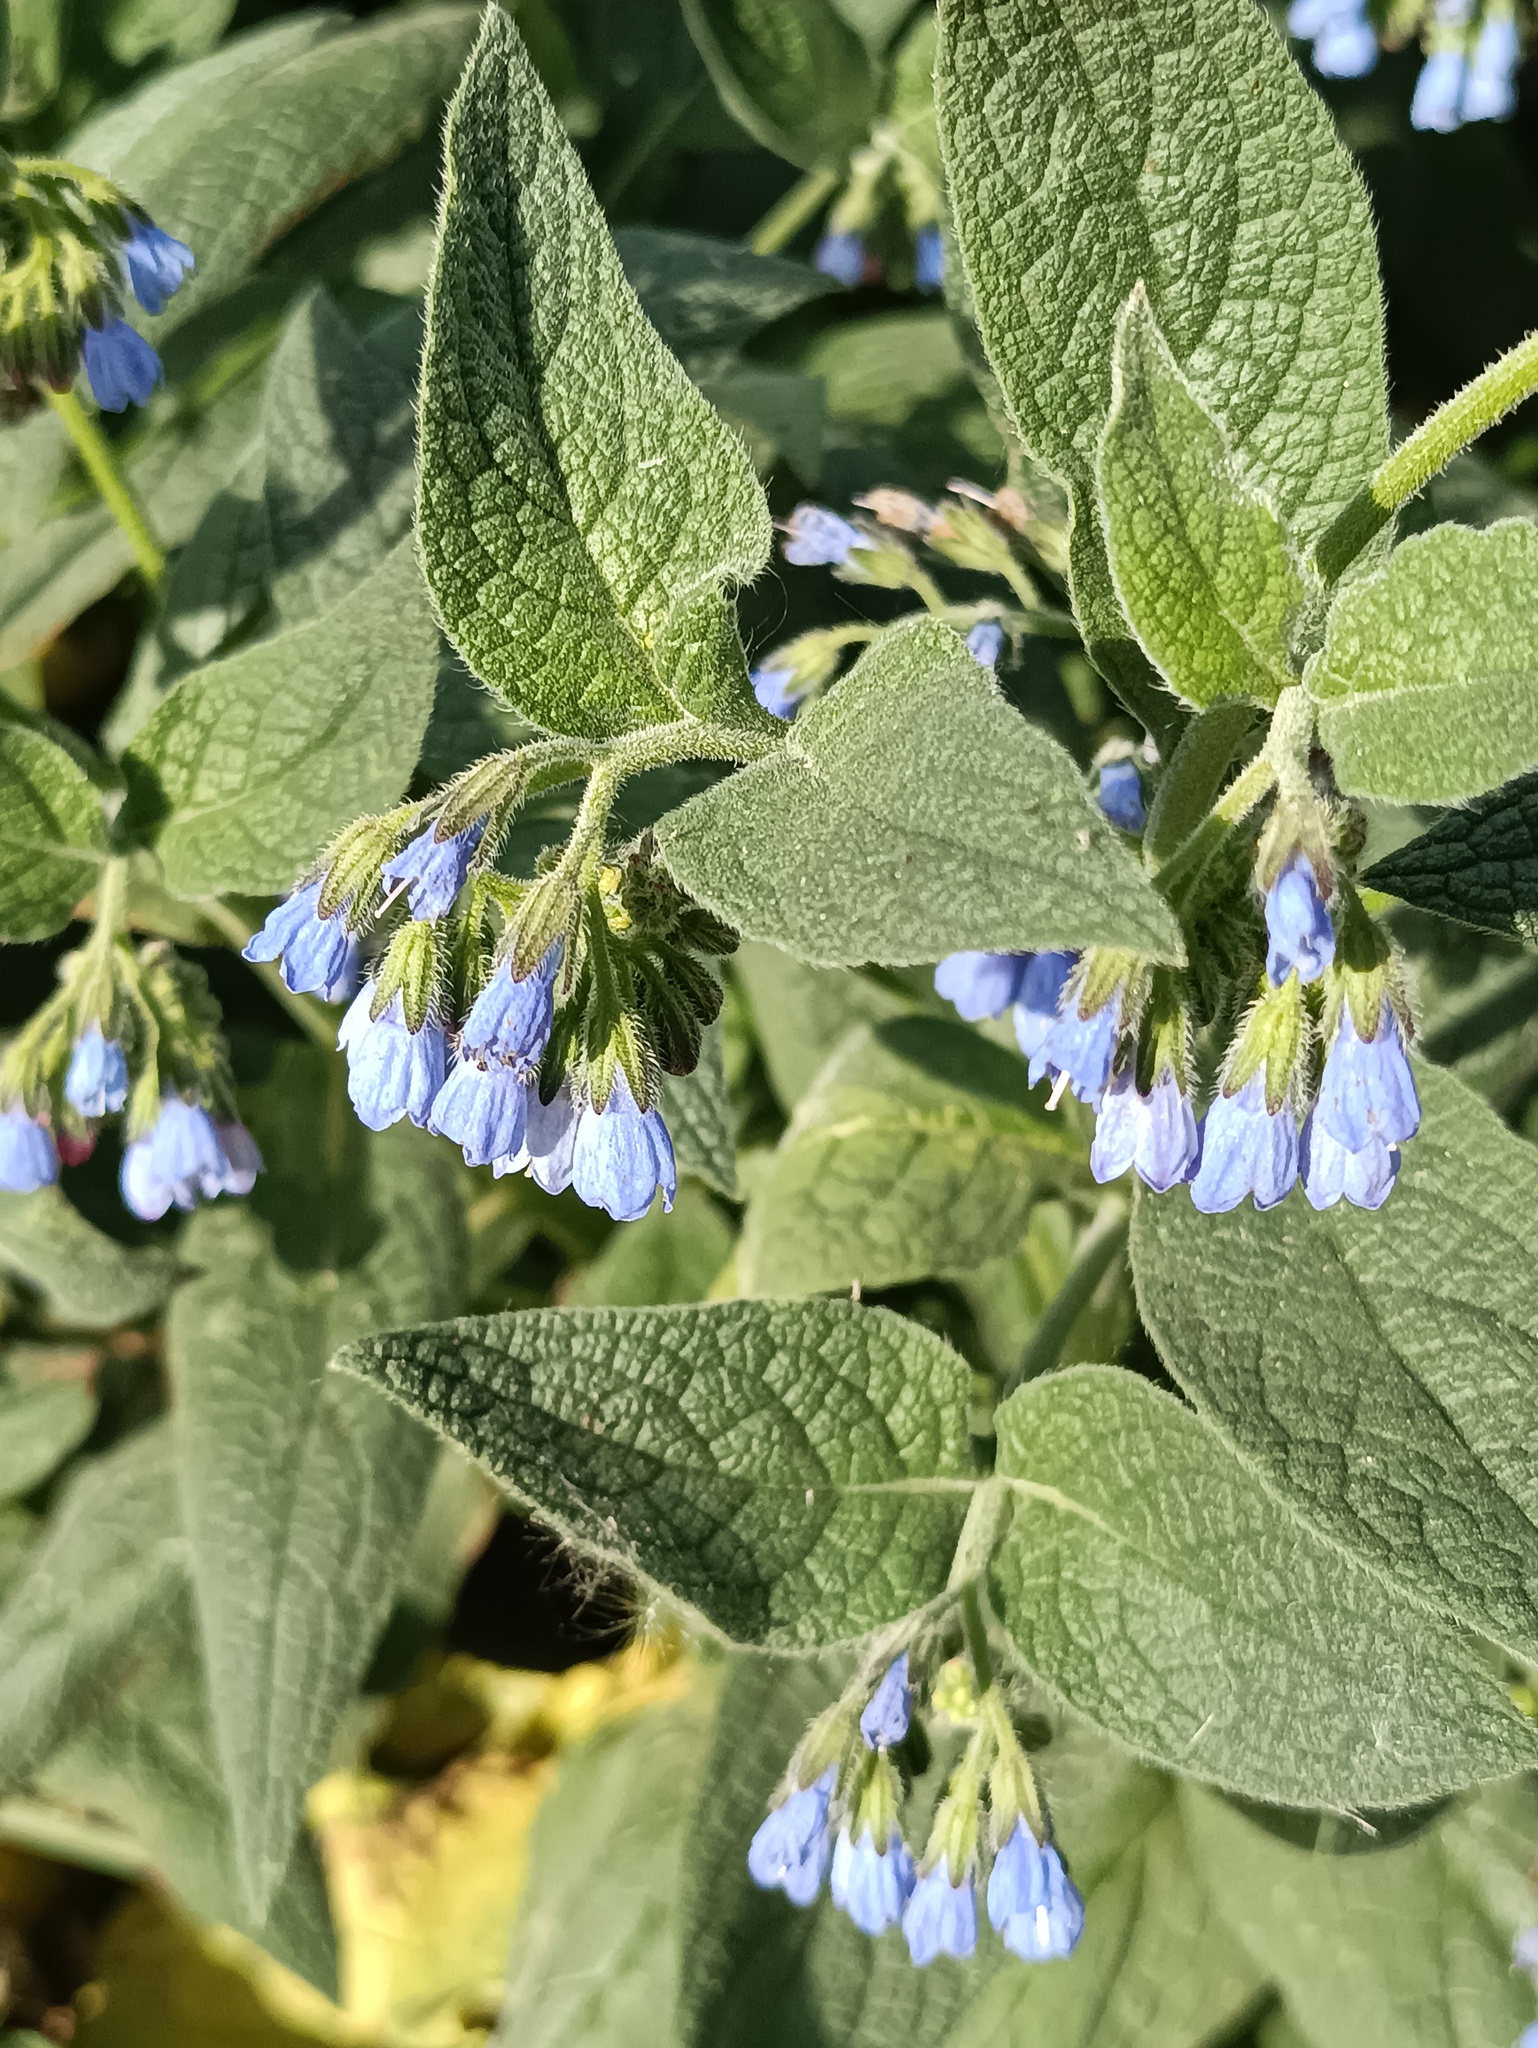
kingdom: Plantae
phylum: Tracheophyta
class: Magnoliopsida
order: Boraginales
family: Boraginaceae
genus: Symphytum
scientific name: Symphytum caucasicum
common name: Caucasian comfrey
